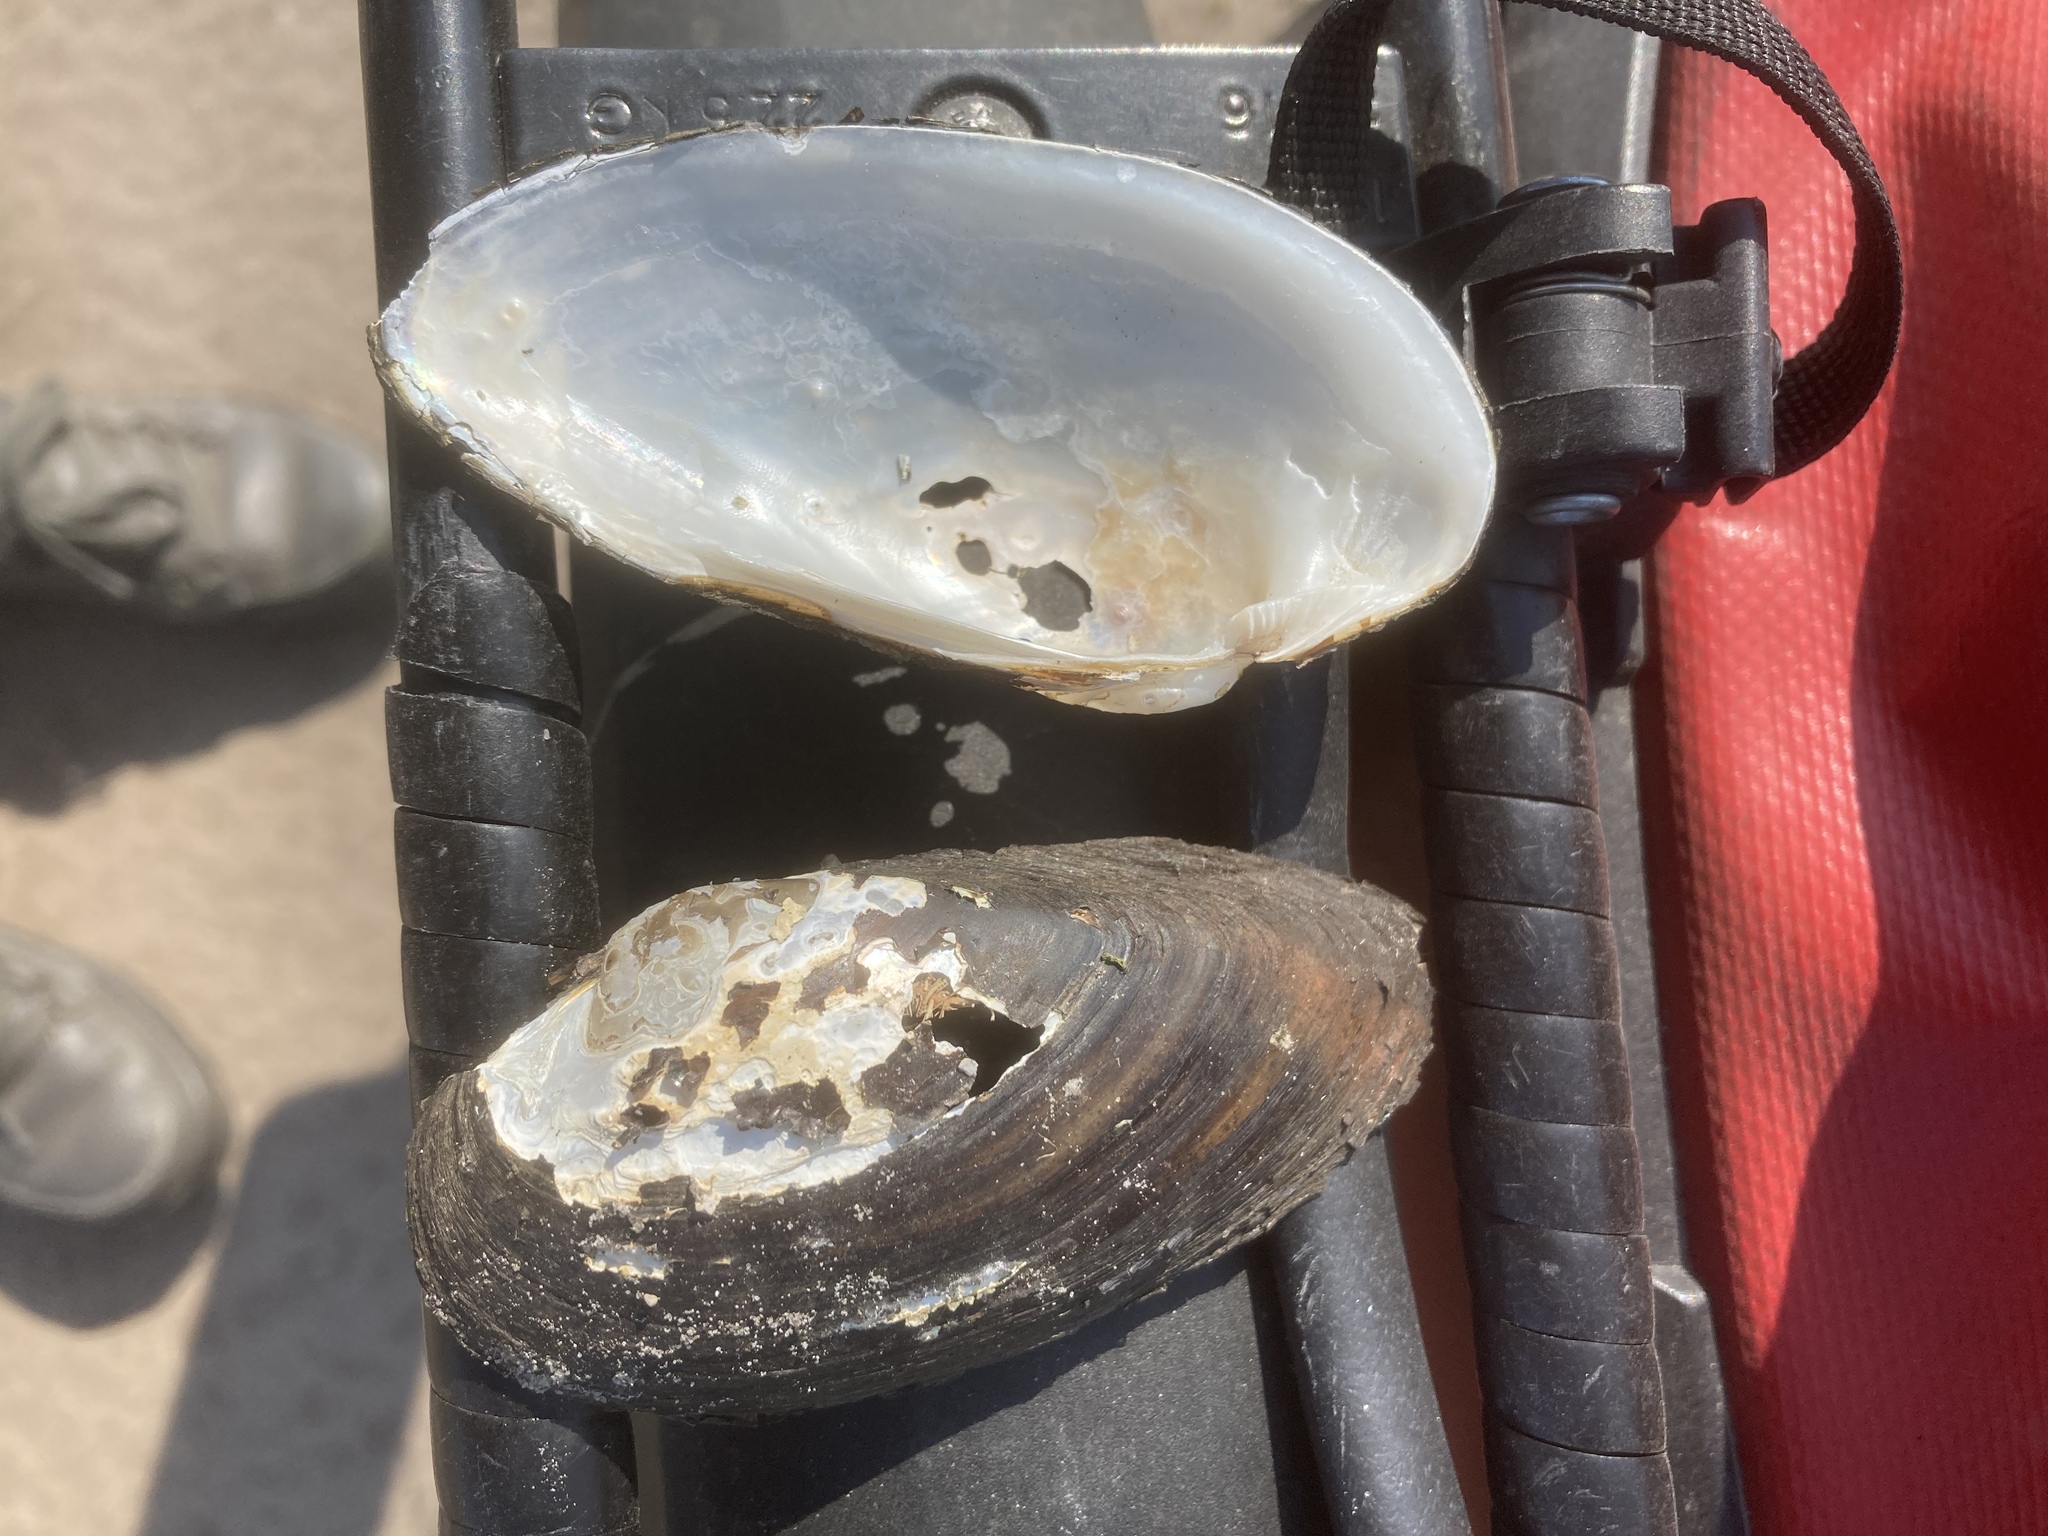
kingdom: Animalia
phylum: Mollusca
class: Bivalvia
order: Unionida
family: Unionidae
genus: Unio
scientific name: Unio tumidus
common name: Swollen river mussel
